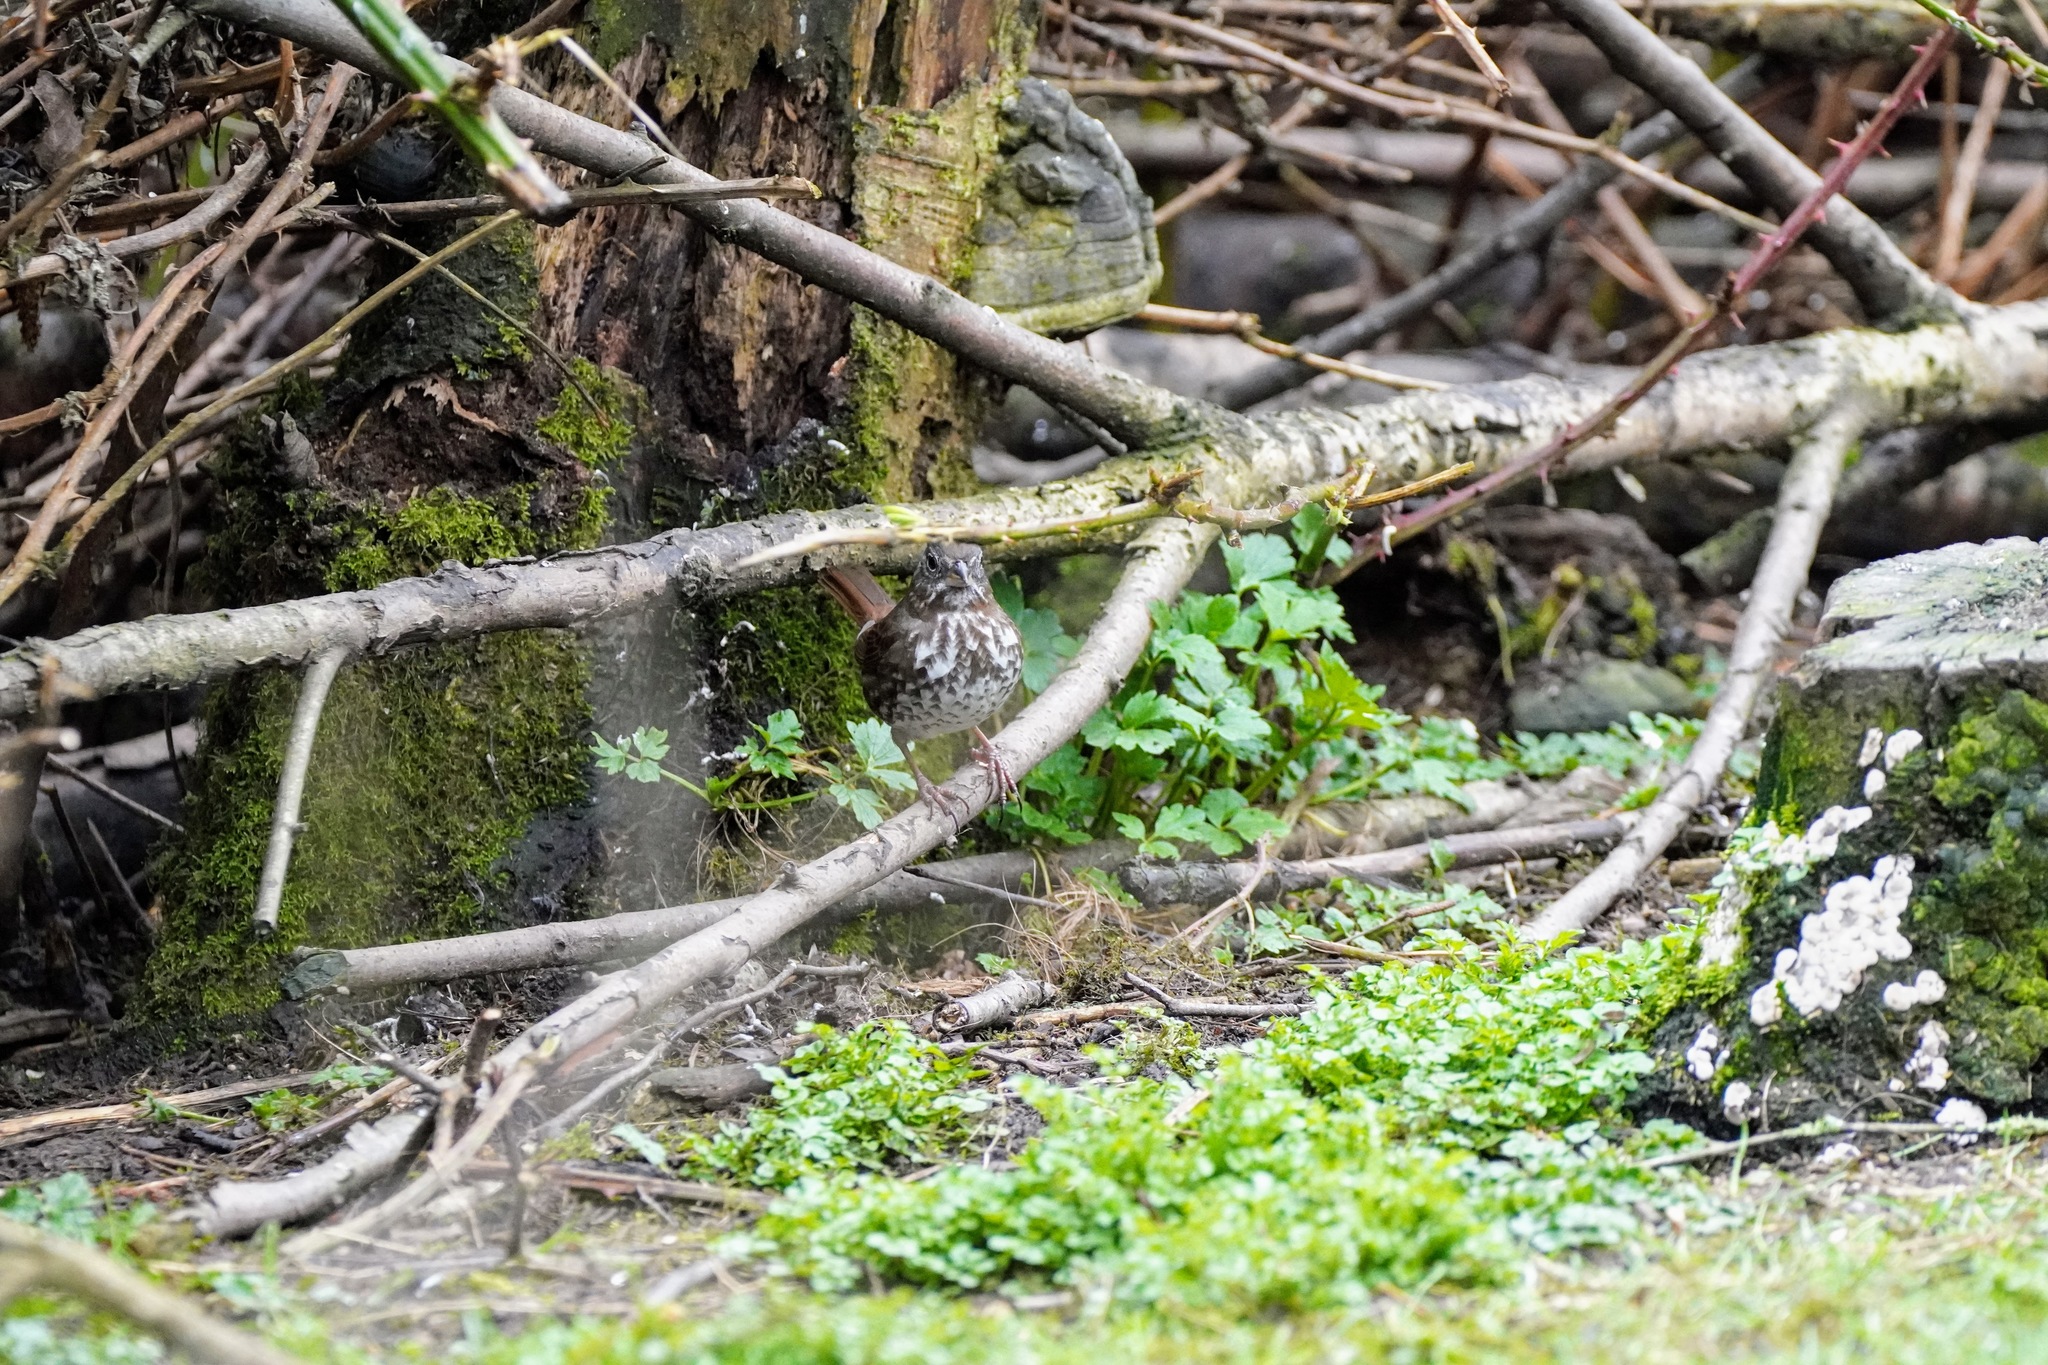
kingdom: Animalia
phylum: Chordata
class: Aves
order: Passeriformes
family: Passerellidae
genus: Passerella
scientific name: Passerella iliaca
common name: Fox sparrow
